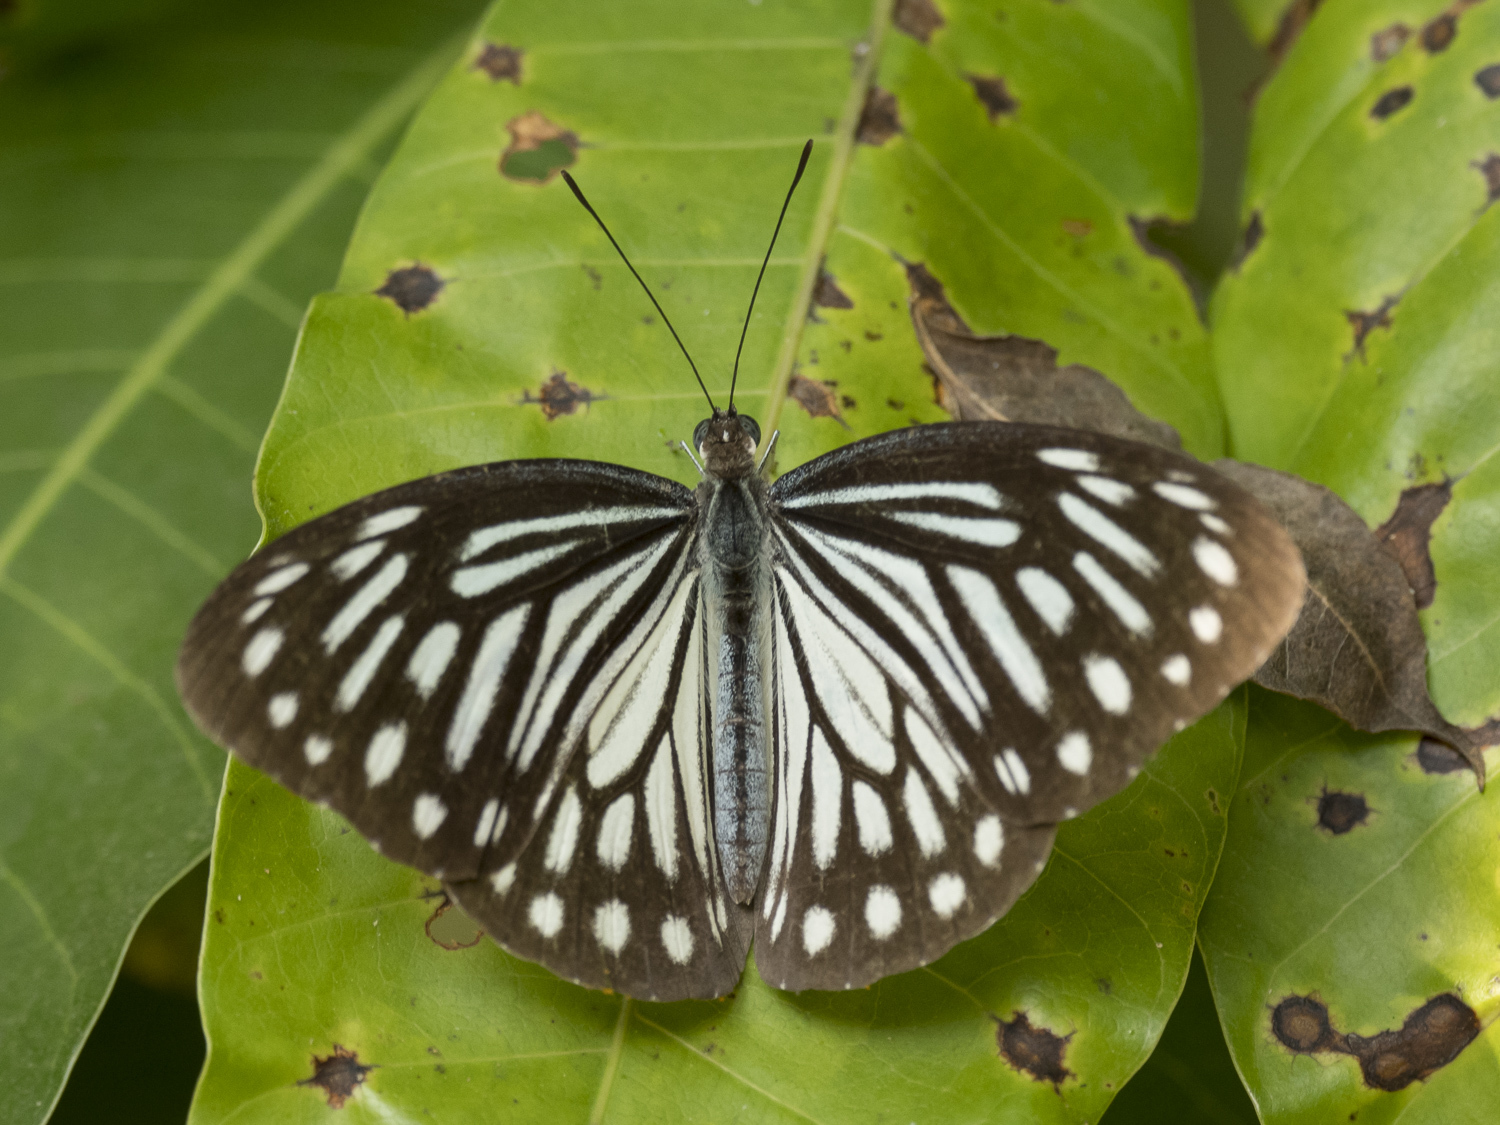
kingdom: Animalia
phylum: Arthropoda
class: Insecta
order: Lepidoptera
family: Pieridae
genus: Pareronia
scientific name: Pareronia hippia
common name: Indian wanderer
